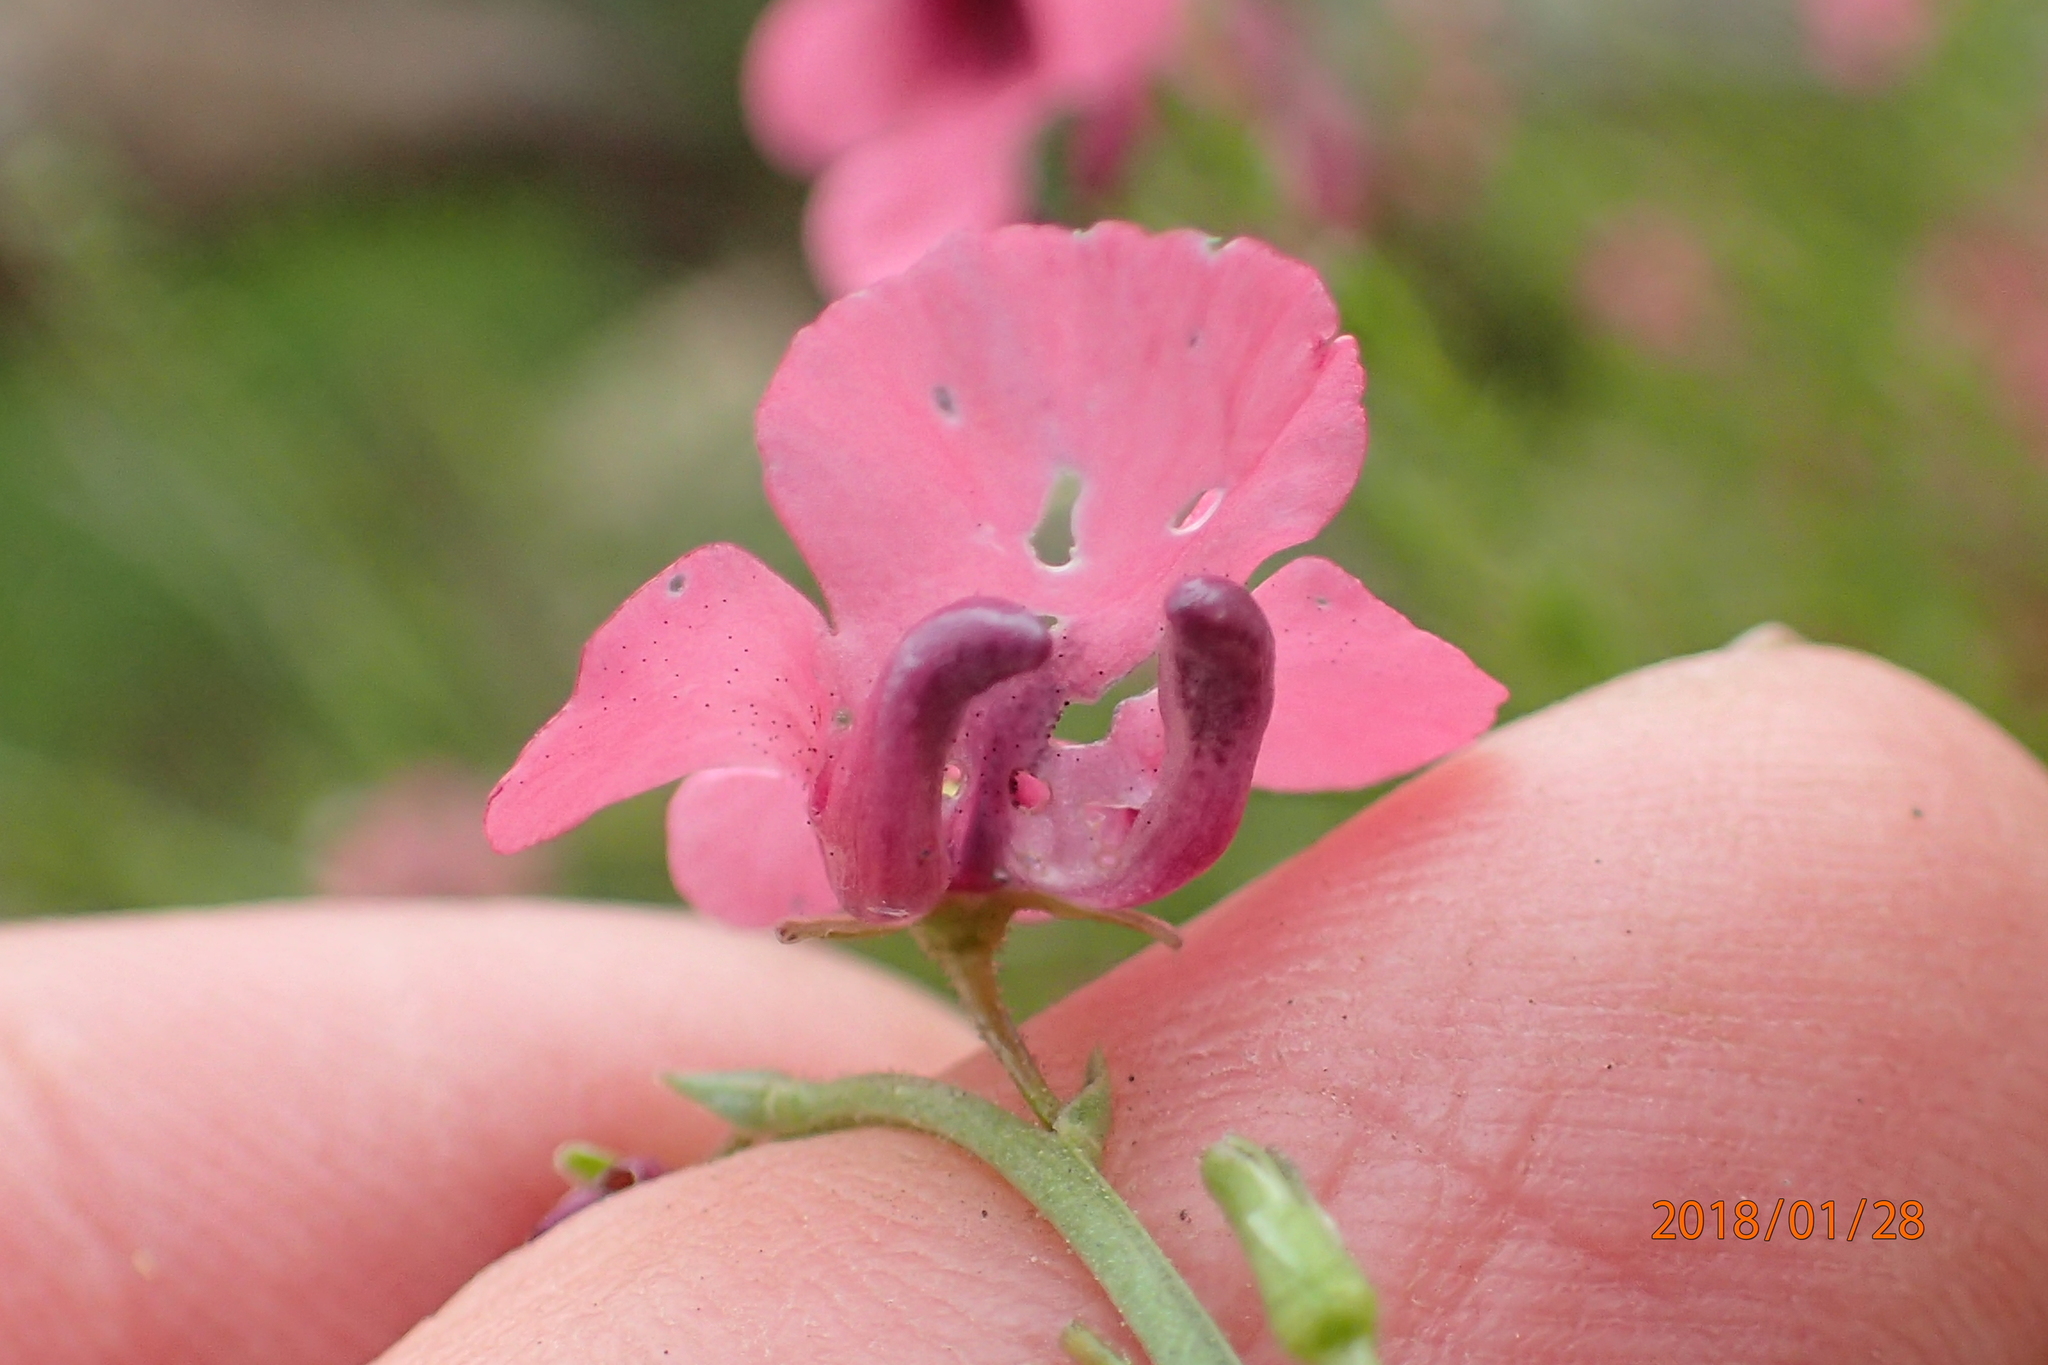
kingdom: Plantae
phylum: Tracheophyta
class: Magnoliopsida
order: Lamiales
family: Scrophulariaceae
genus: Diascia
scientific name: Diascia integerrima
